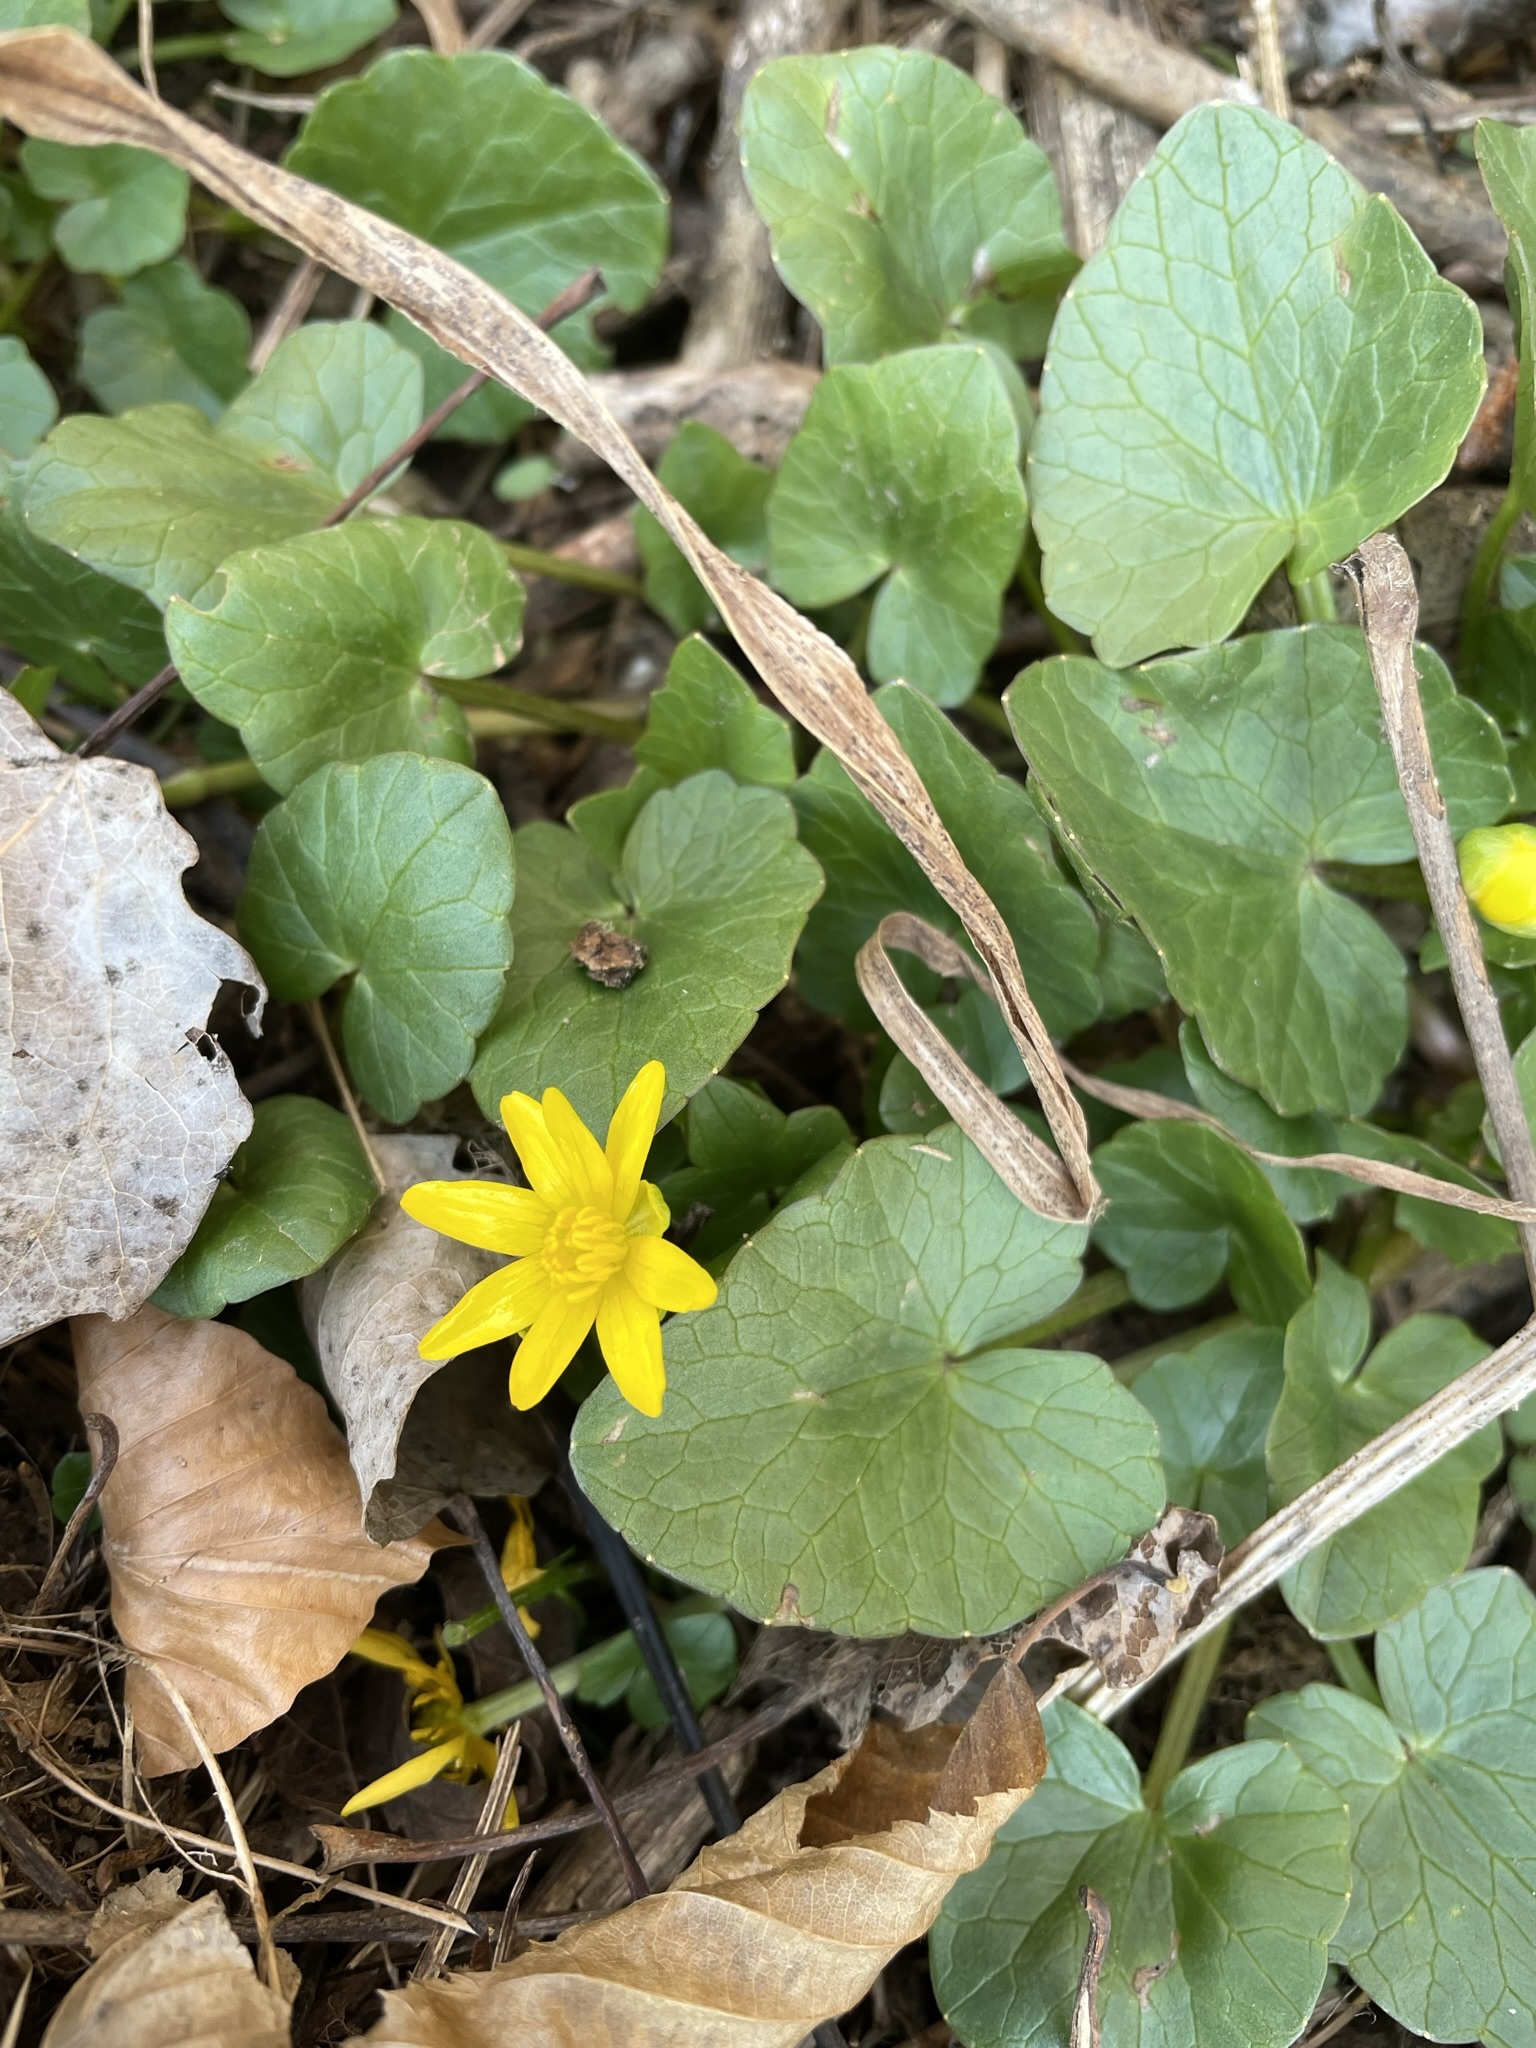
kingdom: Plantae
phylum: Tracheophyta
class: Magnoliopsida
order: Ranunculales
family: Ranunculaceae
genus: Ficaria
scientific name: Ficaria verna
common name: Lesser celandine
